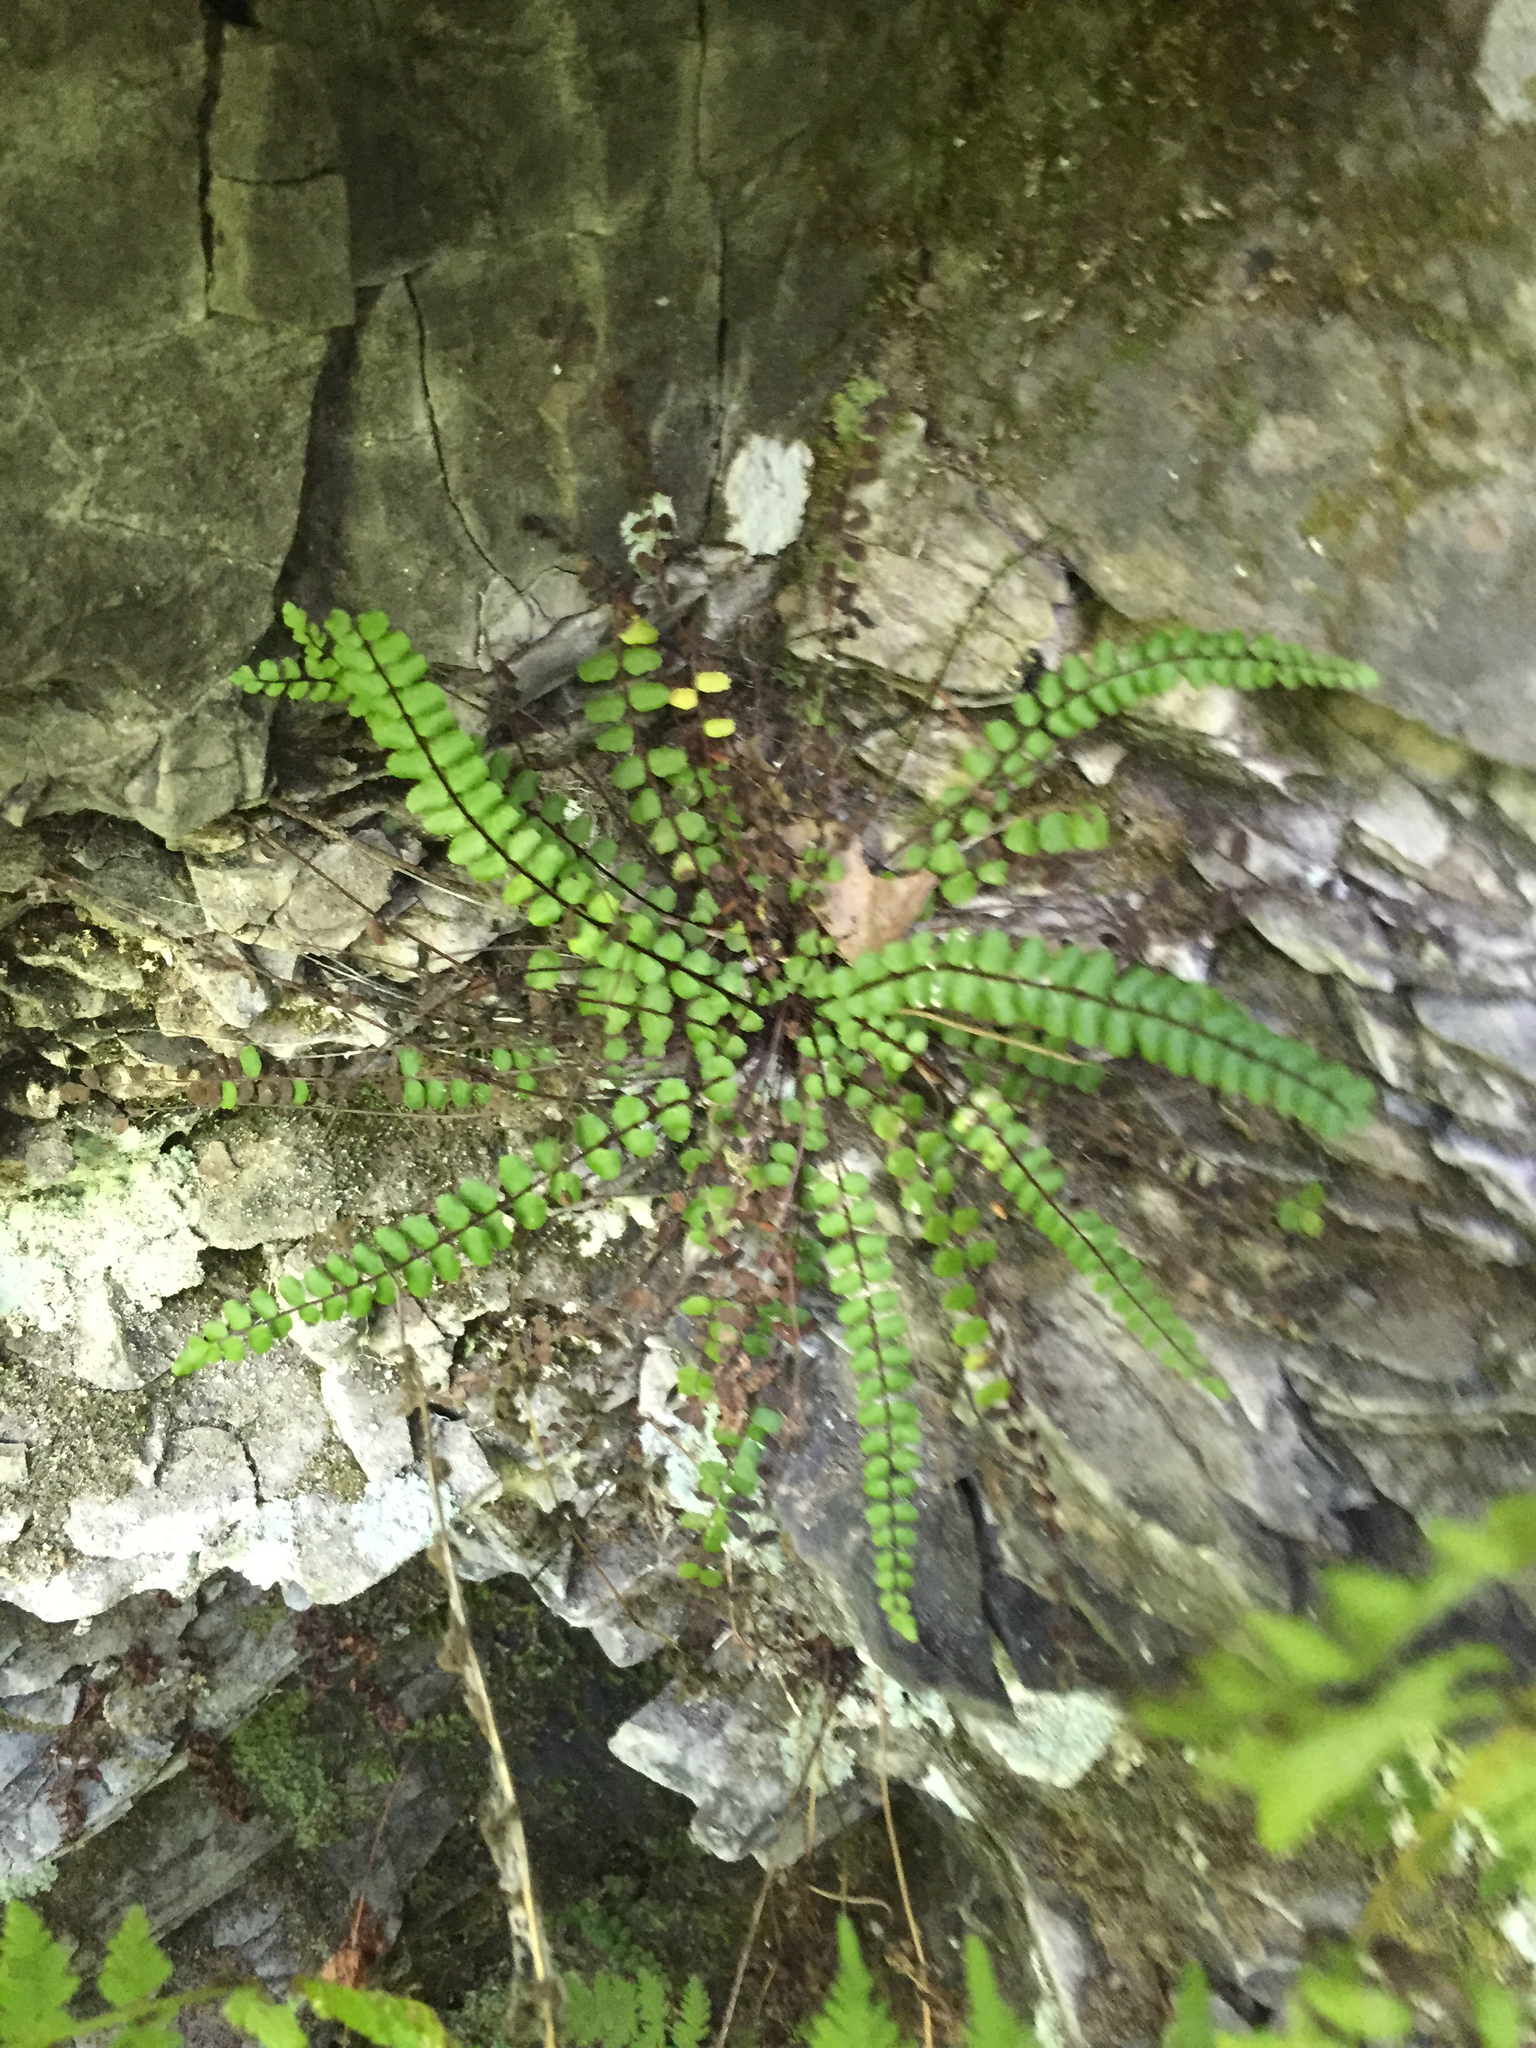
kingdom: Plantae
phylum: Tracheophyta
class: Polypodiopsida
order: Polypodiales
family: Aspleniaceae
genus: Asplenium
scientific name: Asplenium trichomanes
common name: Maidenhair spleenwort
